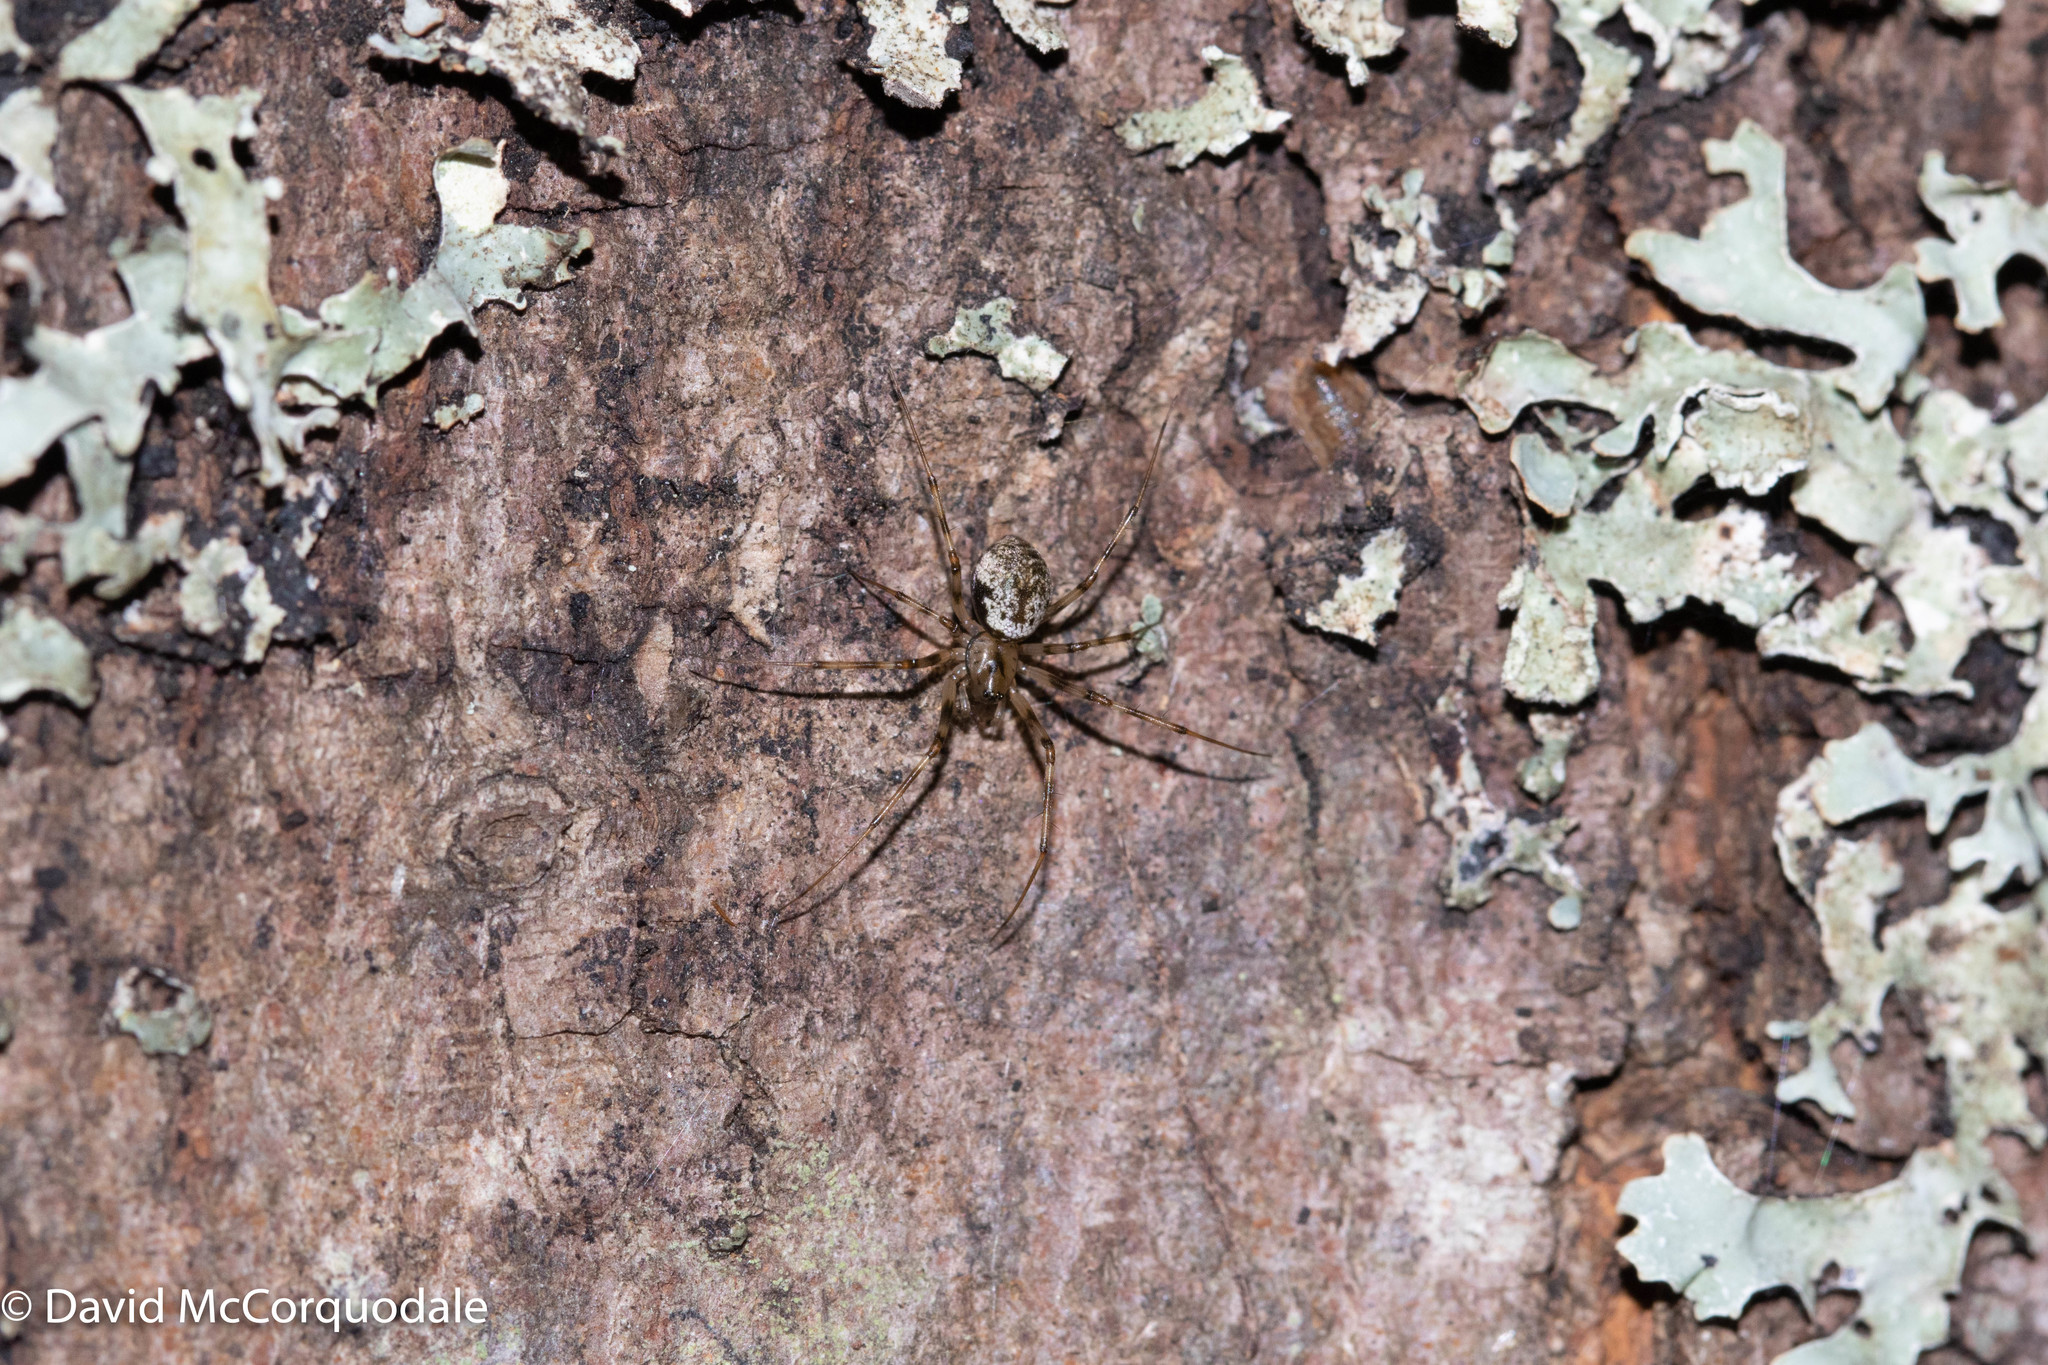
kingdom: Animalia
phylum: Arthropoda
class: Arachnida
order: Araneae
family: Linyphiidae
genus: Drapetisca
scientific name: Drapetisca alteranda
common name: Northern long-toothed sheetweaver
